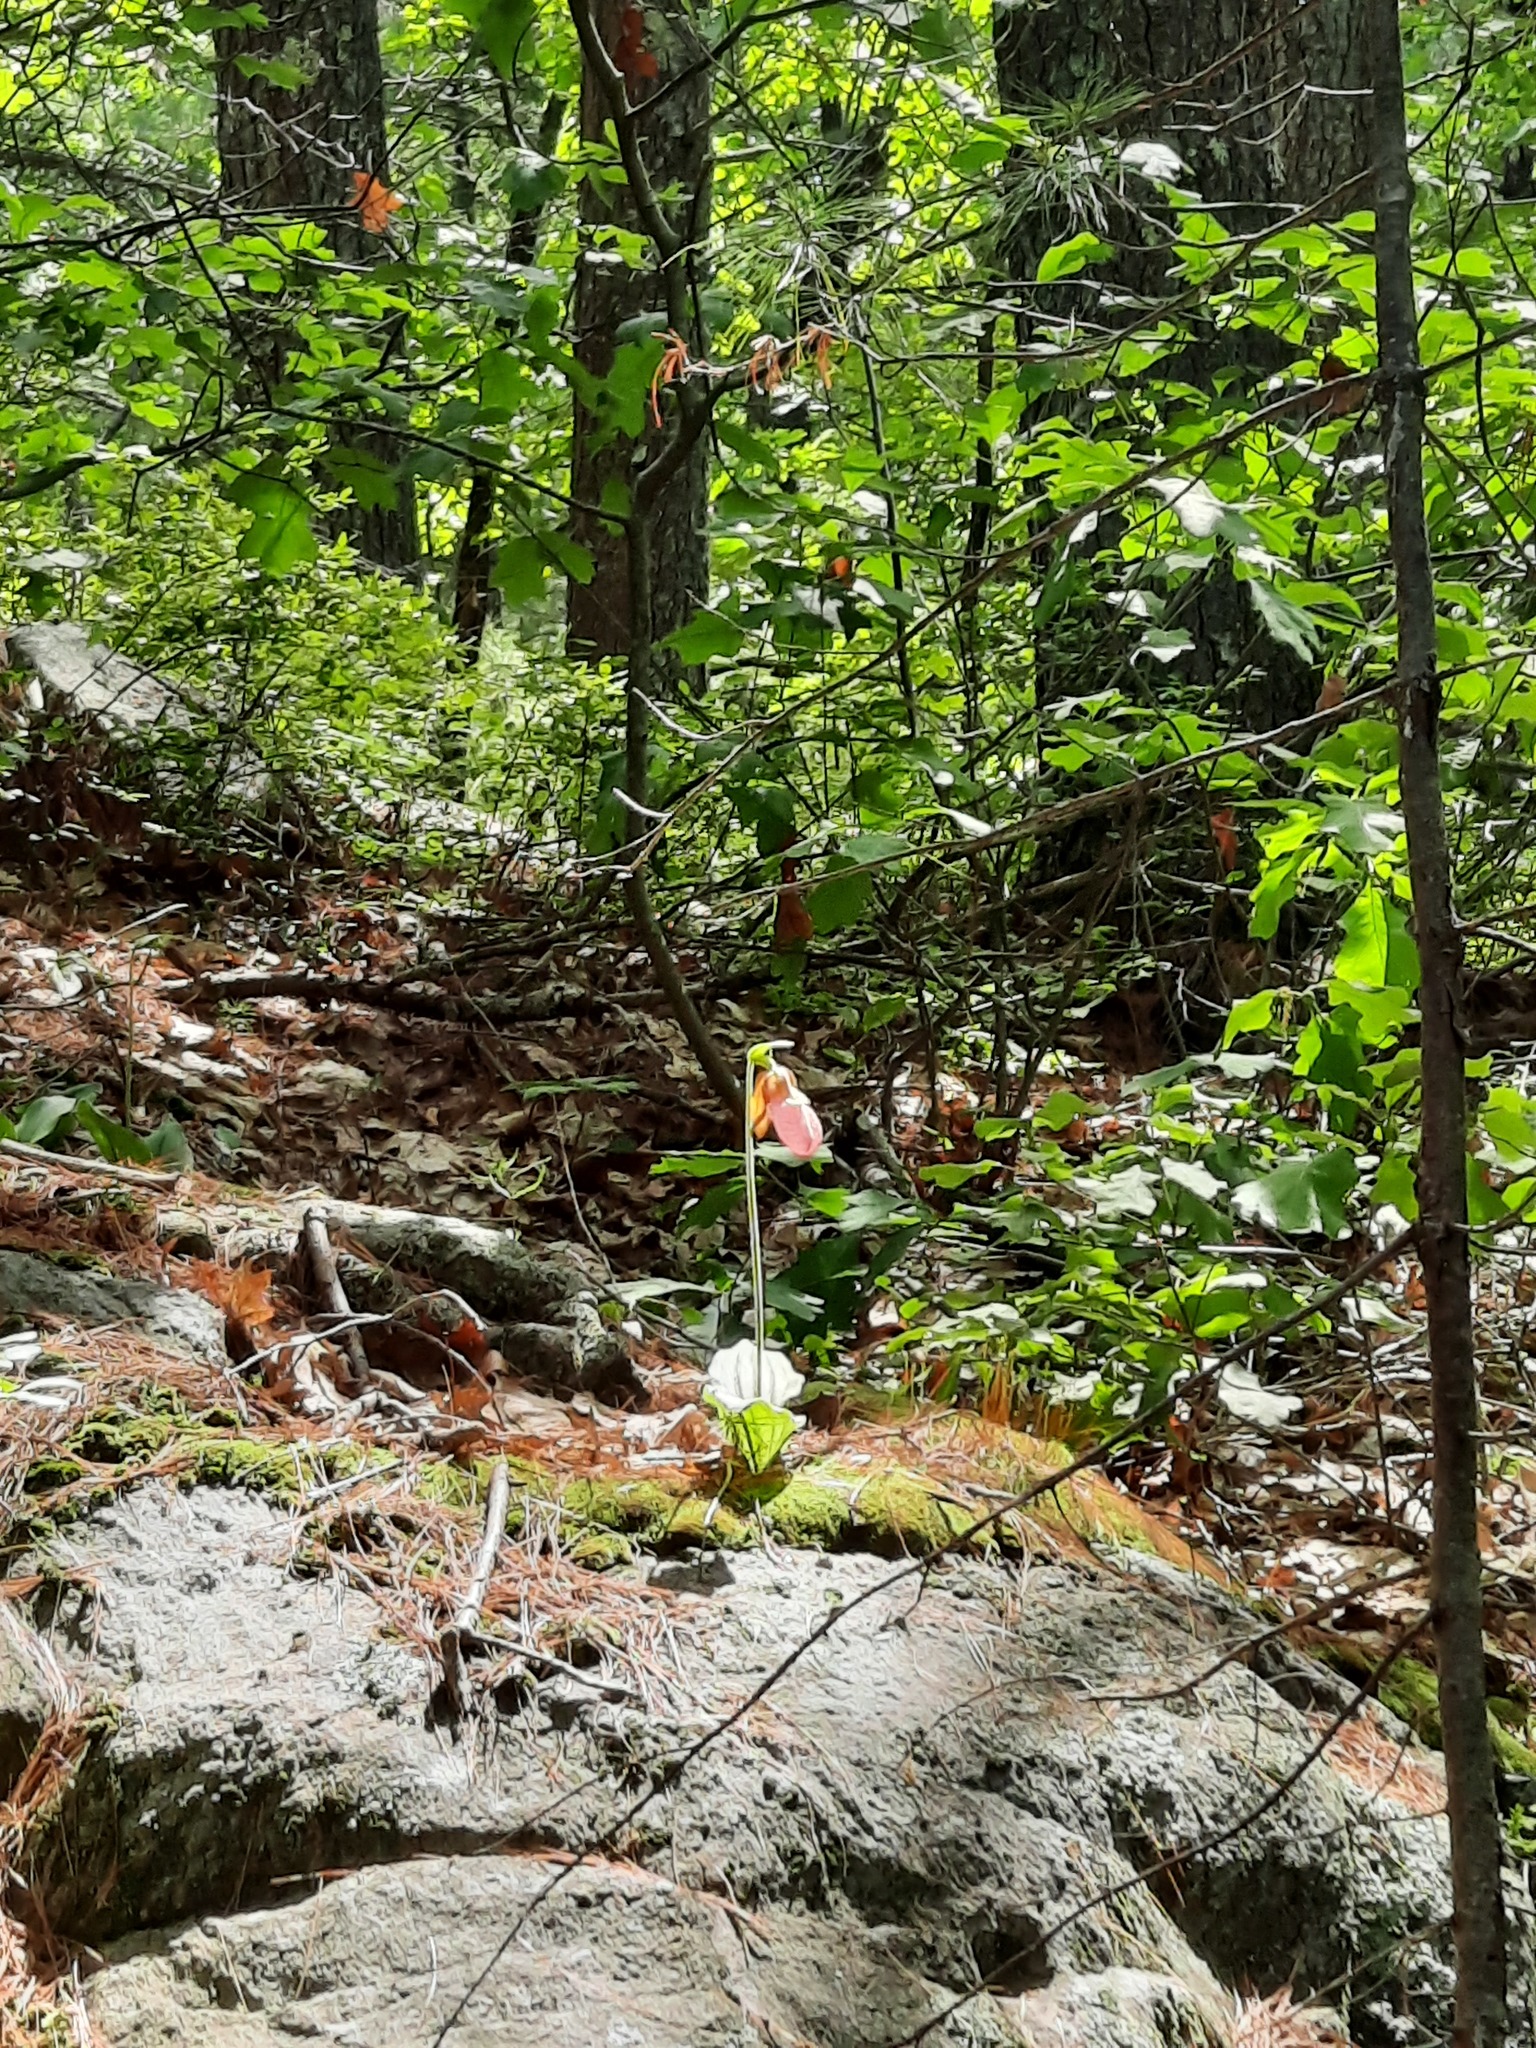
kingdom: Plantae
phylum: Tracheophyta
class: Liliopsida
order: Asparagales
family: Orchidaceae
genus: Cypripedium
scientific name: Cypripedium acaule
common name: Pink lady's-slipper
